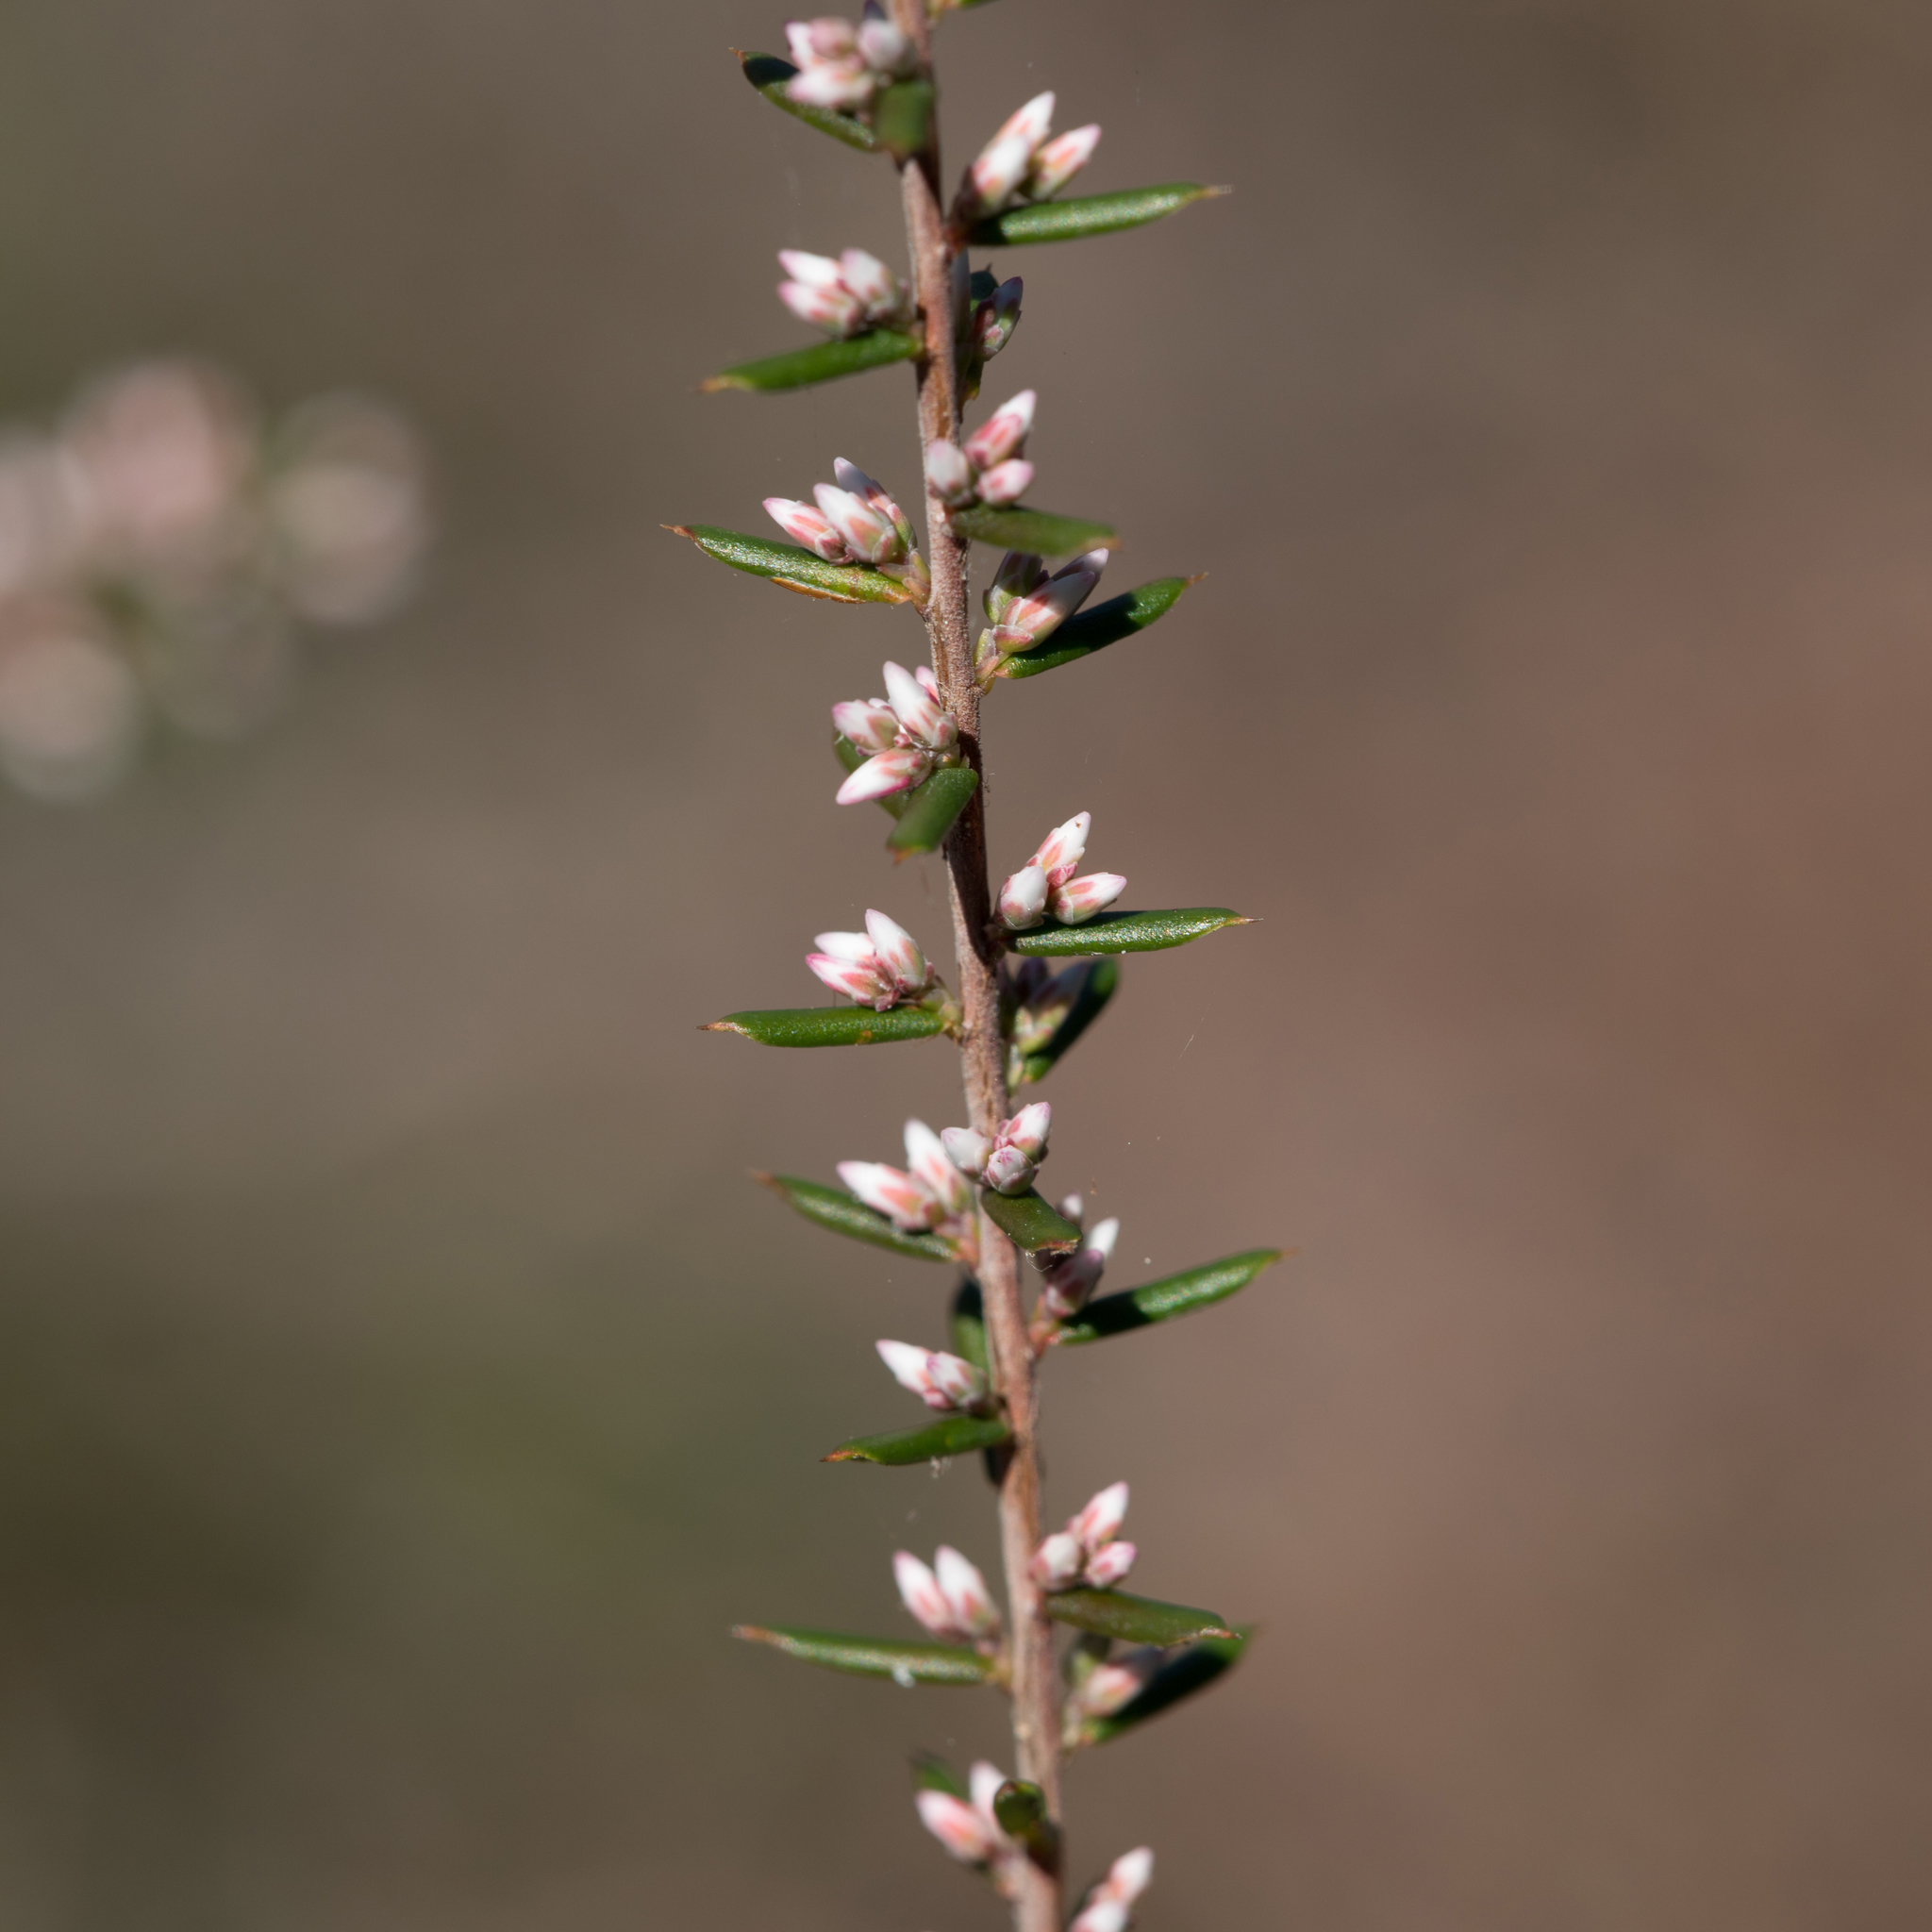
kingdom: Plantae
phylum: Tracheophyta
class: Magnoliopsida
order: Ericales
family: Ericaceae
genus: Styphelia
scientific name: Styphelia ericoides
